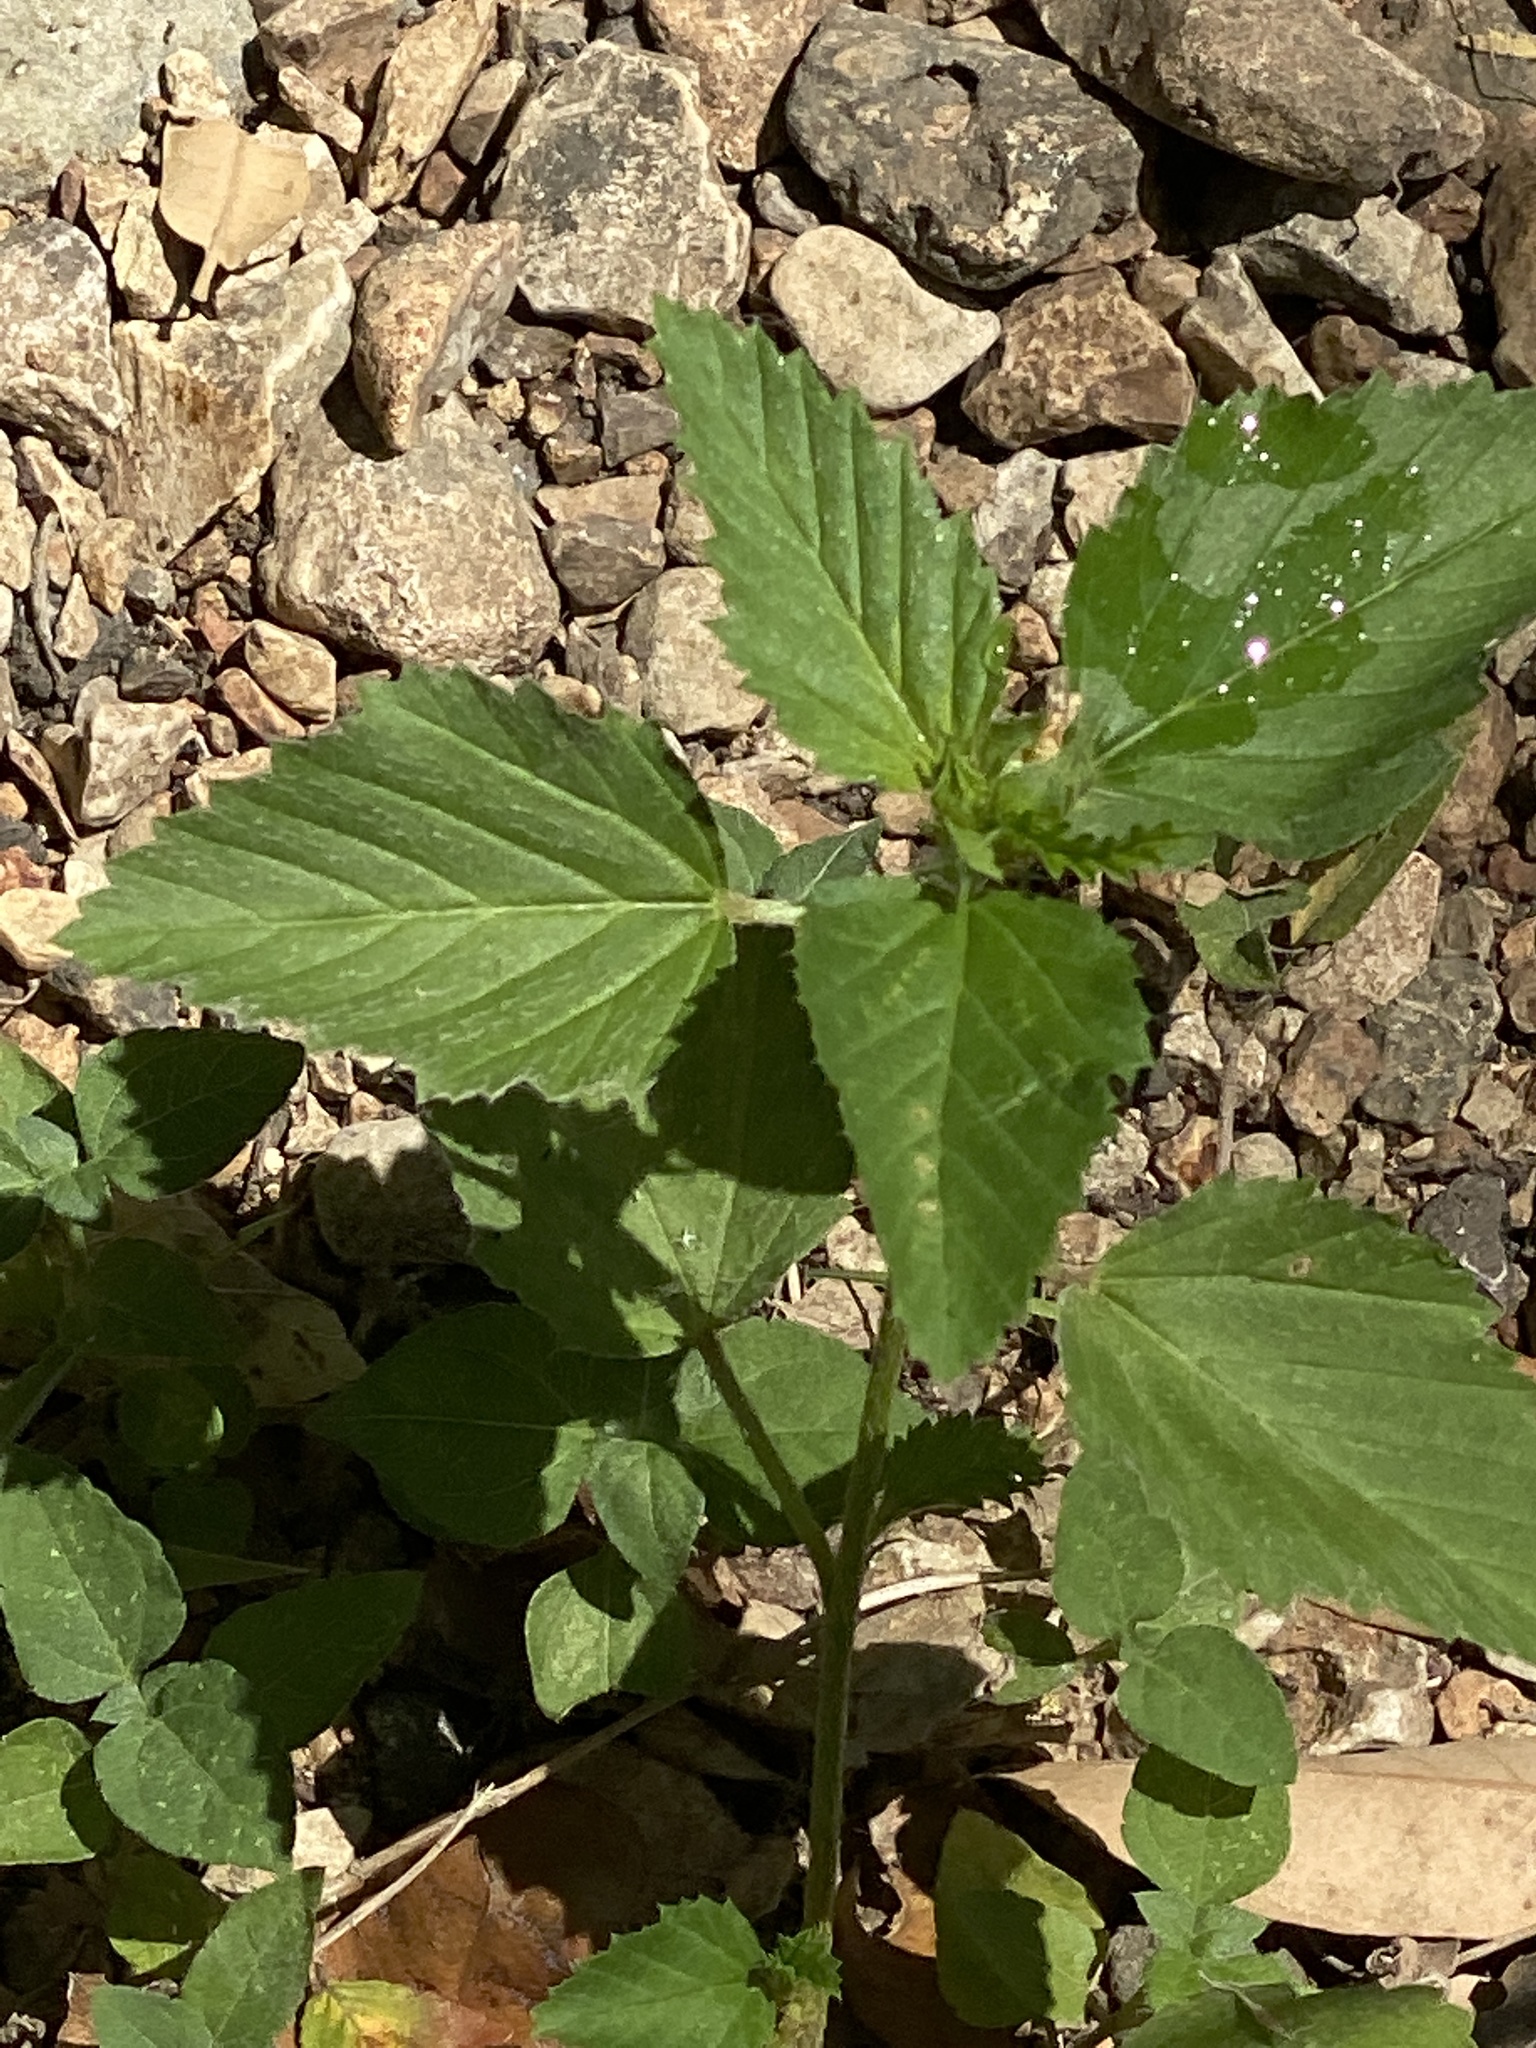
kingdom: Plantae
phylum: Tracheophyta
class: Magnoliopsida
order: Malvales
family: Malvaceae
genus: Malvastrum
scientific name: Malvastrum coromandelianum
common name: Threelobe false mallow
